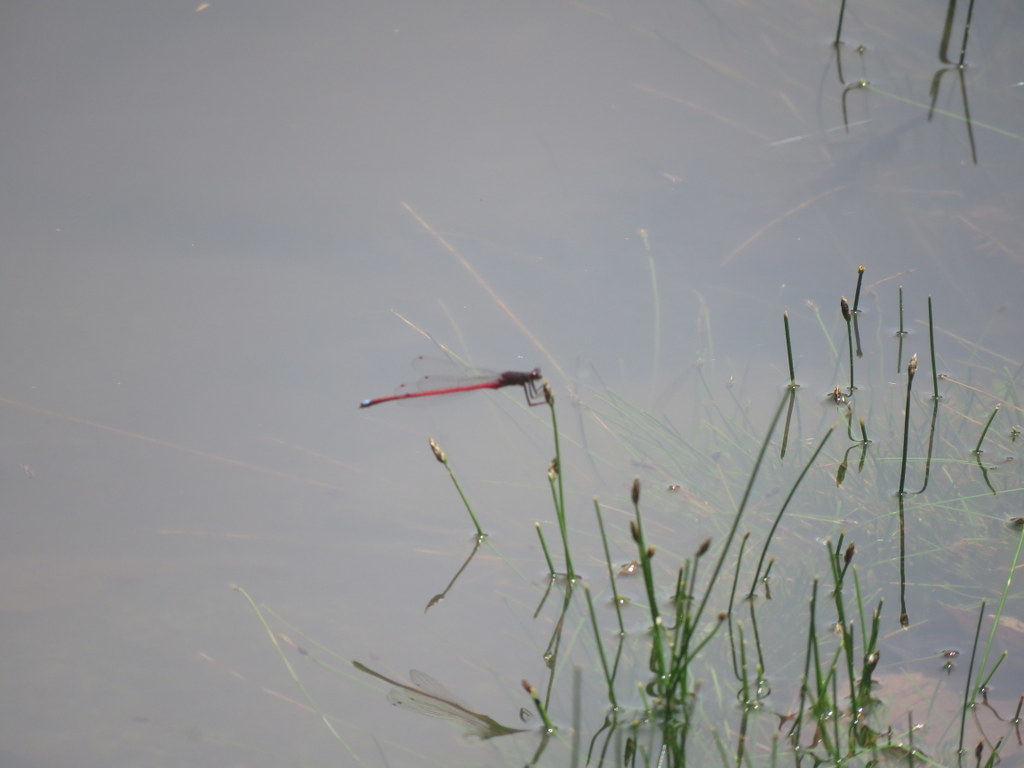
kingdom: Animalia
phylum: Arthropoda
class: Insecta
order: Odonata
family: Coenagrionidae
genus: Oxyagrion
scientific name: Oxyagrion rubidum
